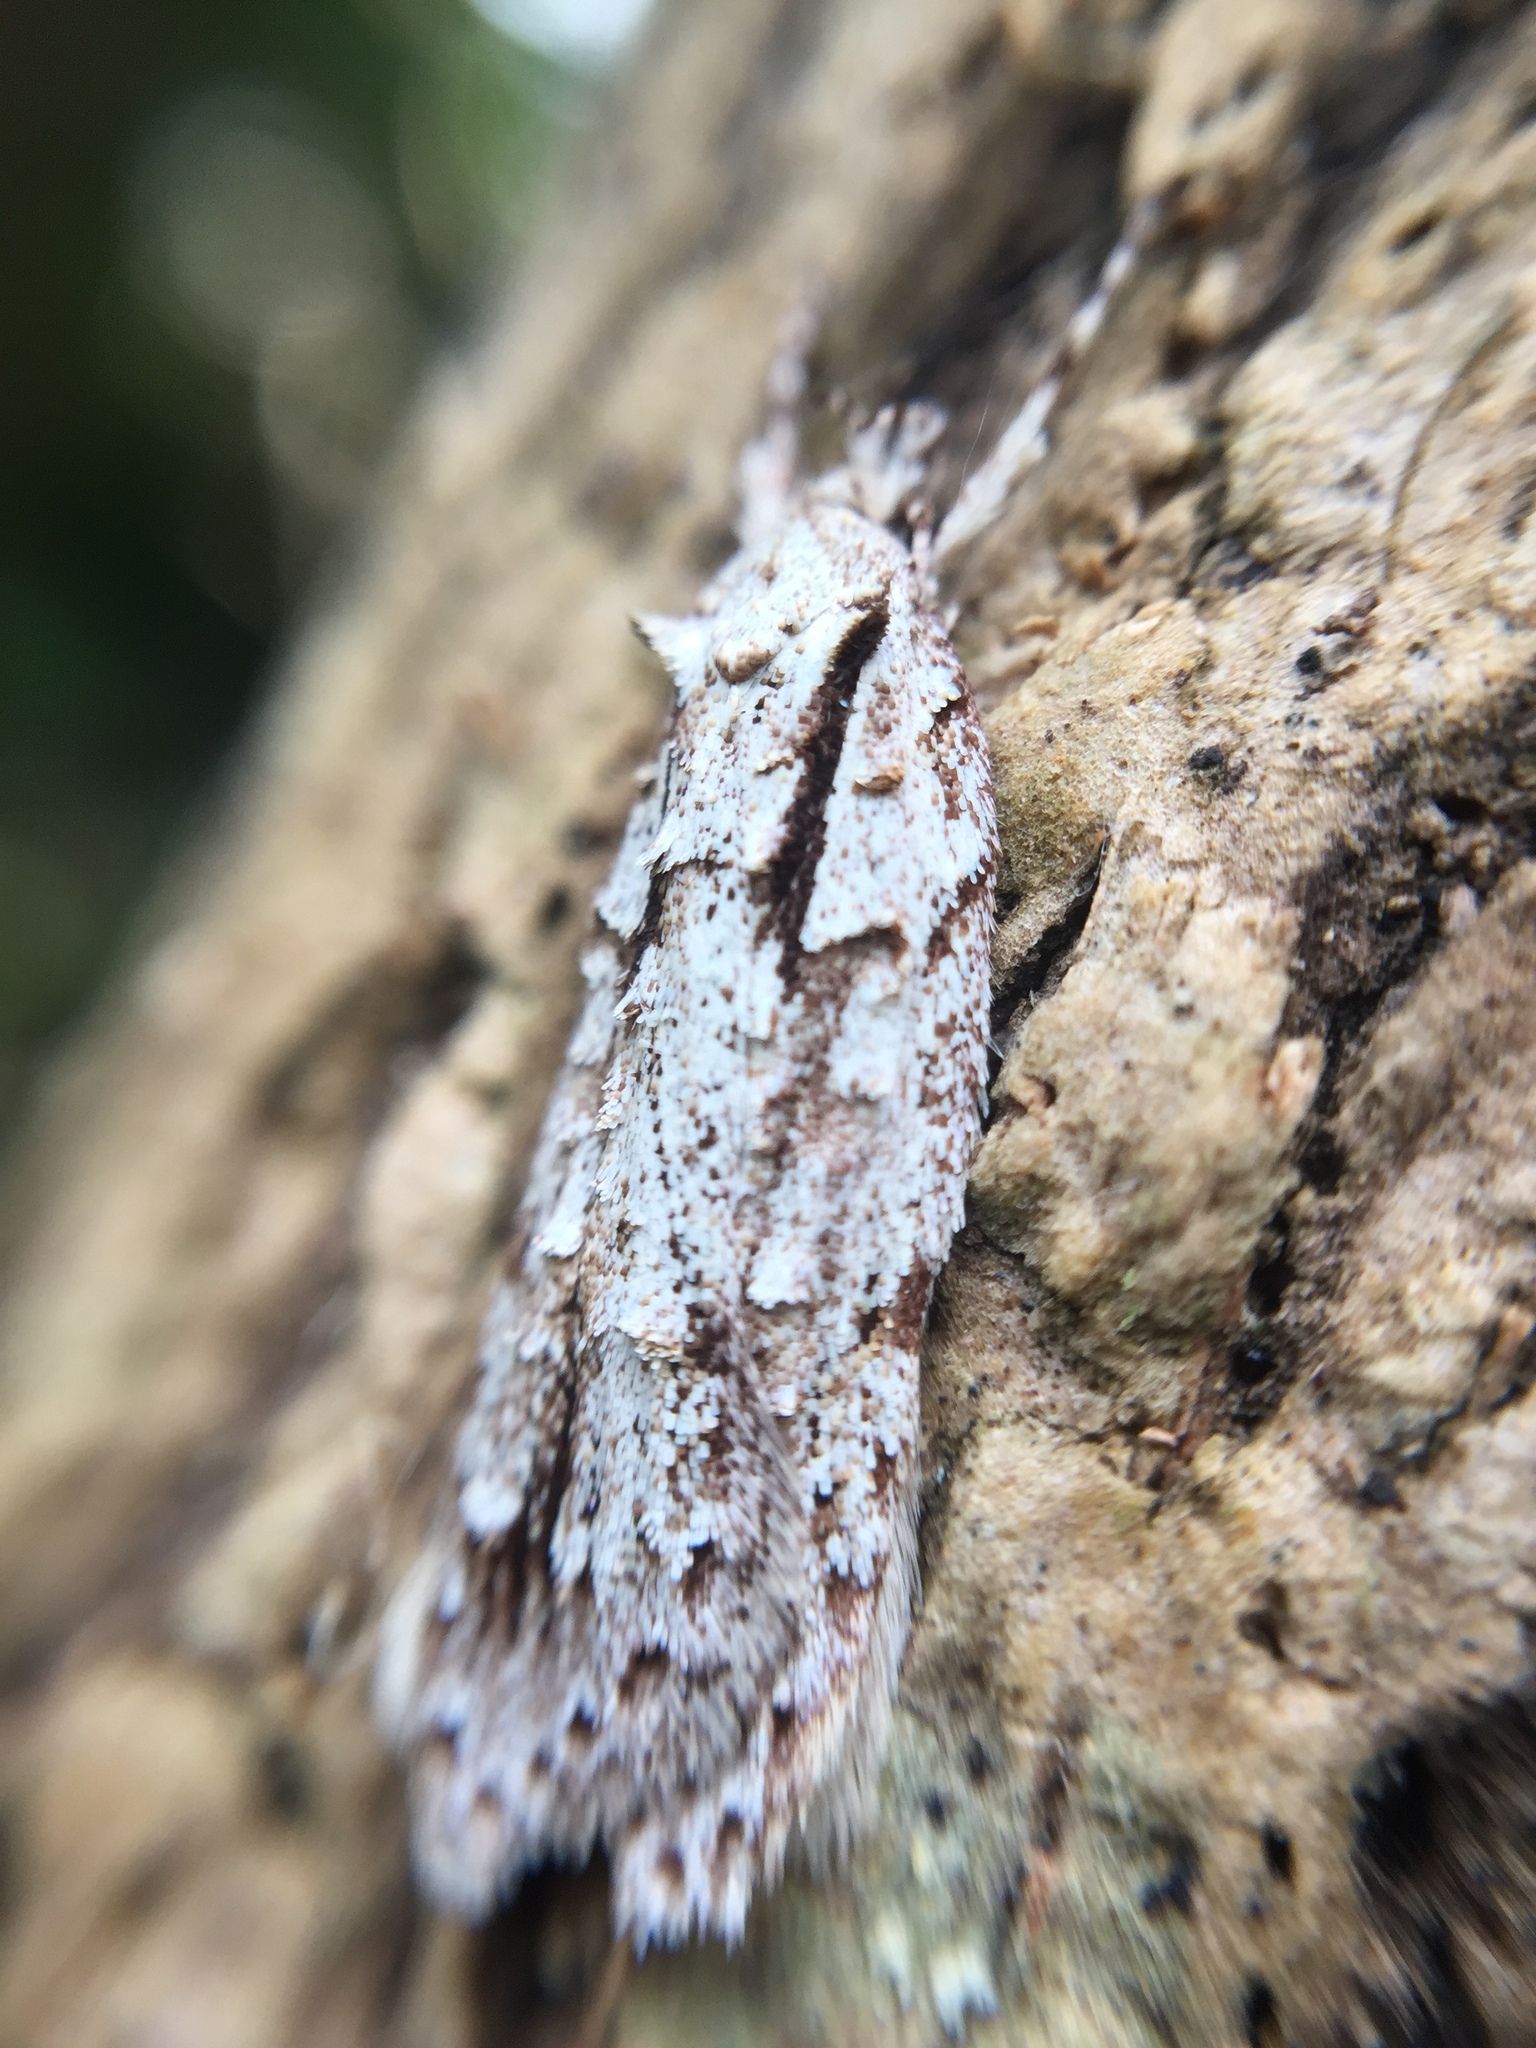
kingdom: Animalia
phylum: Arthropoda
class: Insecta
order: Lepidoptera
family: Oecophoridae
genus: Izatha
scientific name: Izatha attactella
